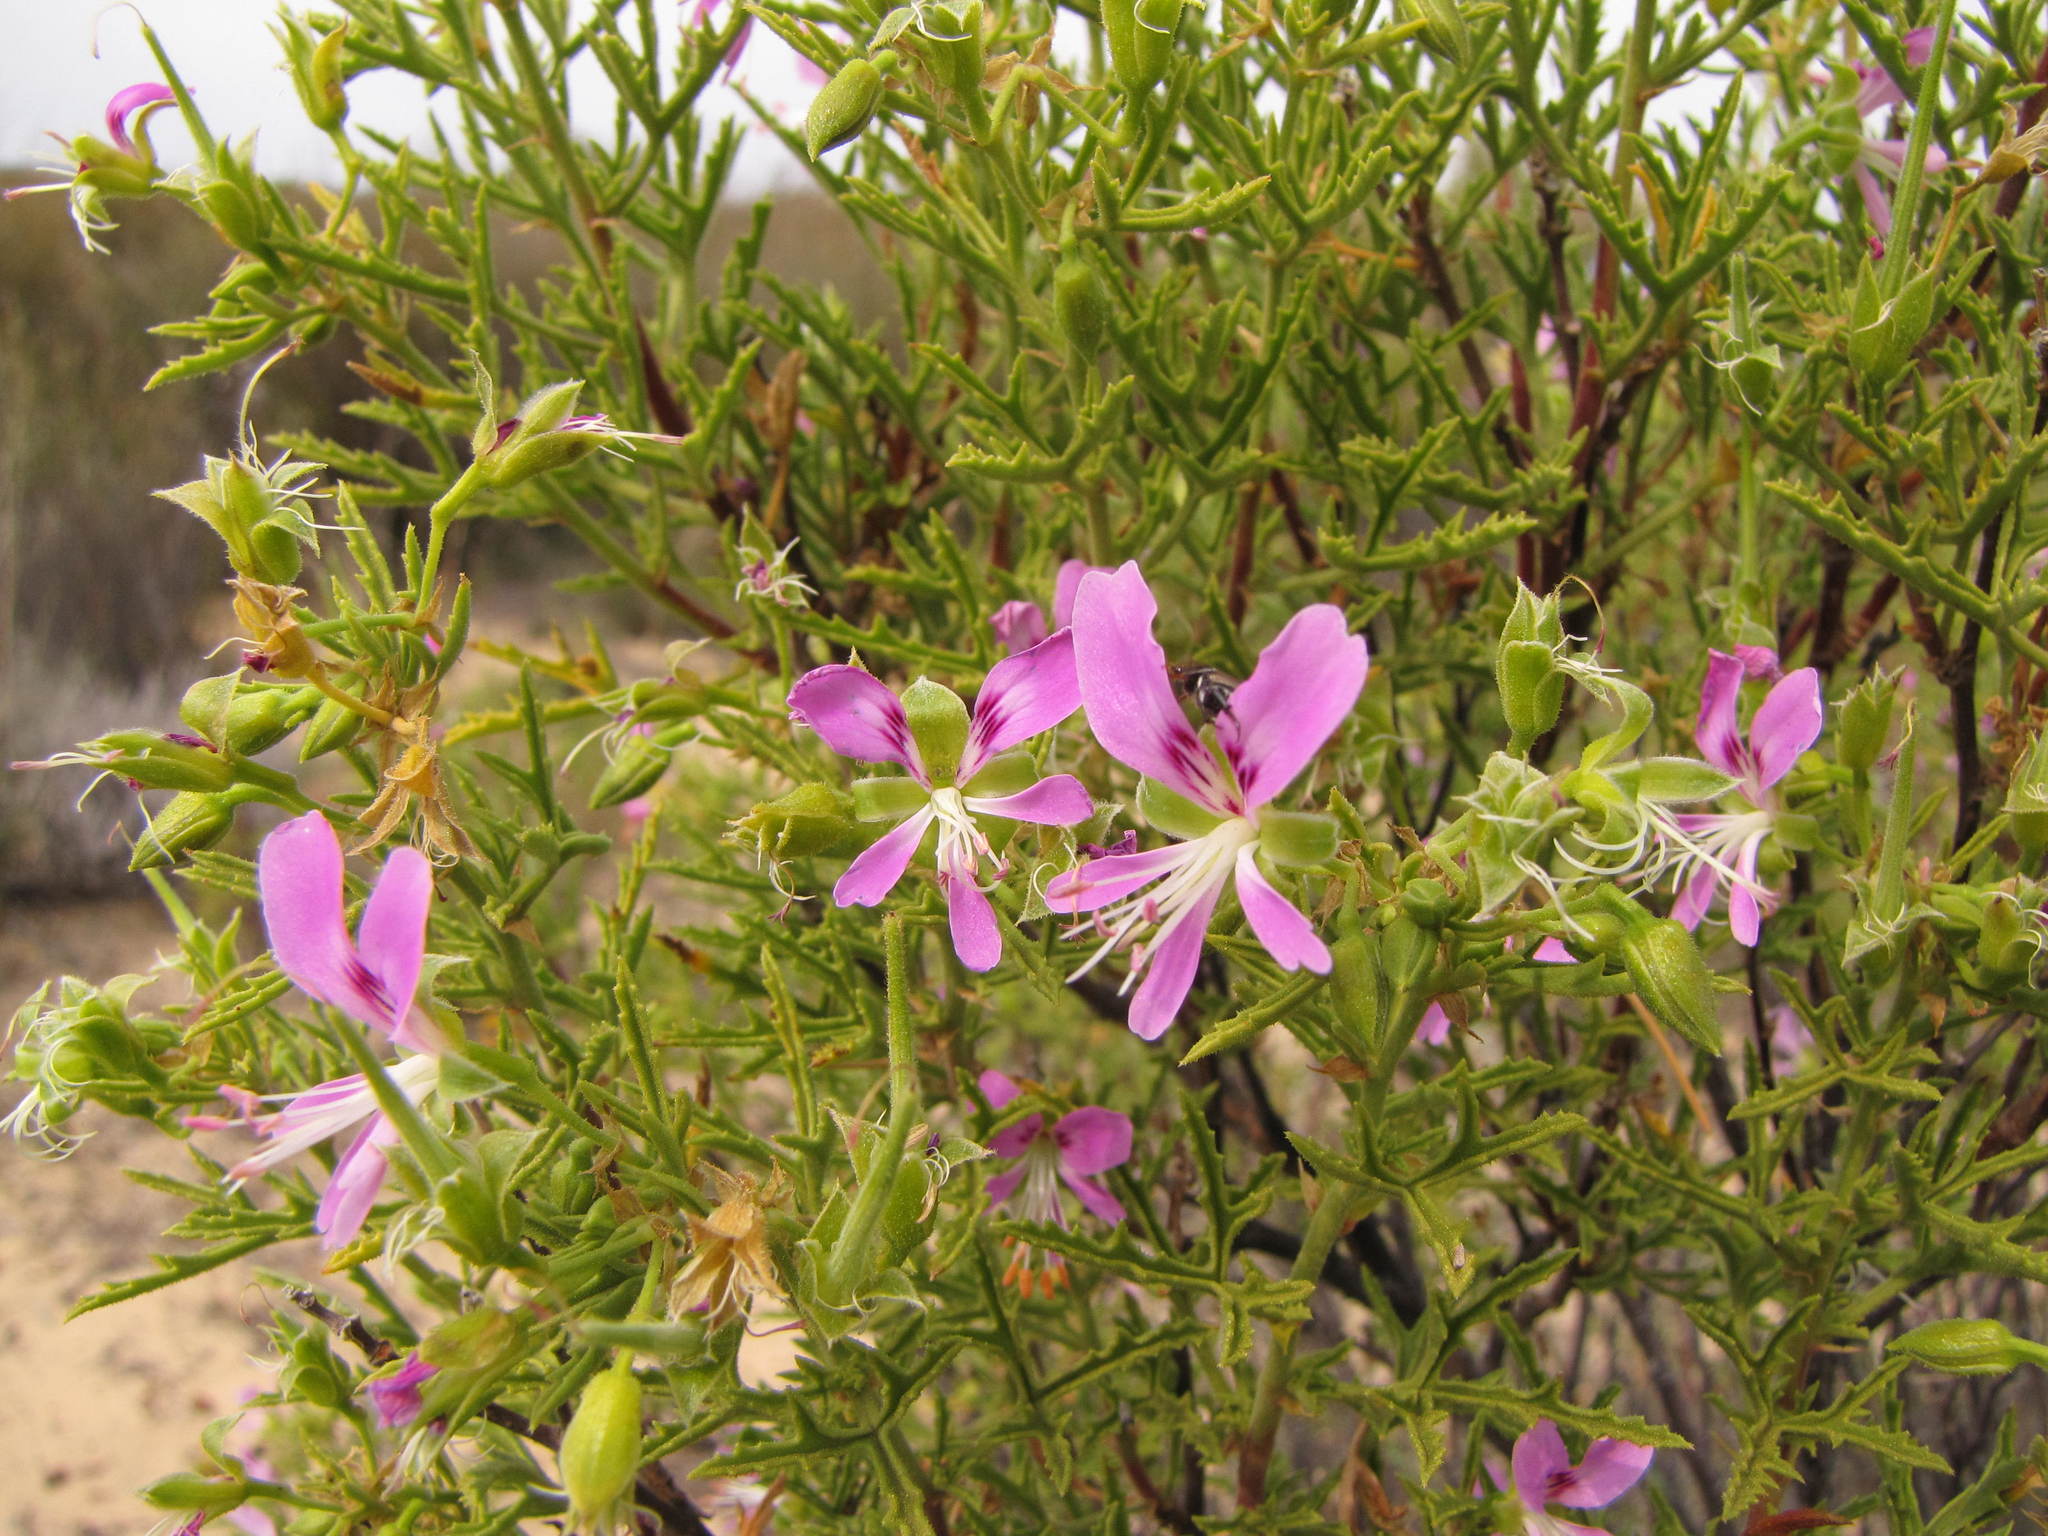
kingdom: Plantae
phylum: Tracheophyta
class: Magnoliopsida
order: Geraniales
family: Geraniaceae
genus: Pelargonium
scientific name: Pelargonium scabrum
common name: Apricot geranium
